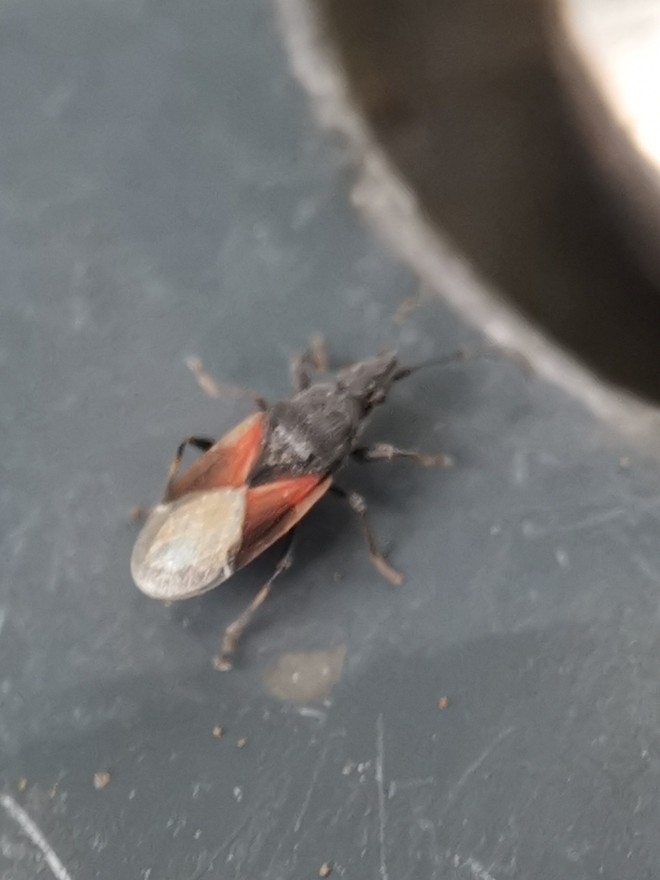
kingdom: Animalia
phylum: Arthropoda
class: Insecta
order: Hemiptera
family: Oxycarenidae
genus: Oxycarenus
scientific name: Oxycarenus lavaterae
